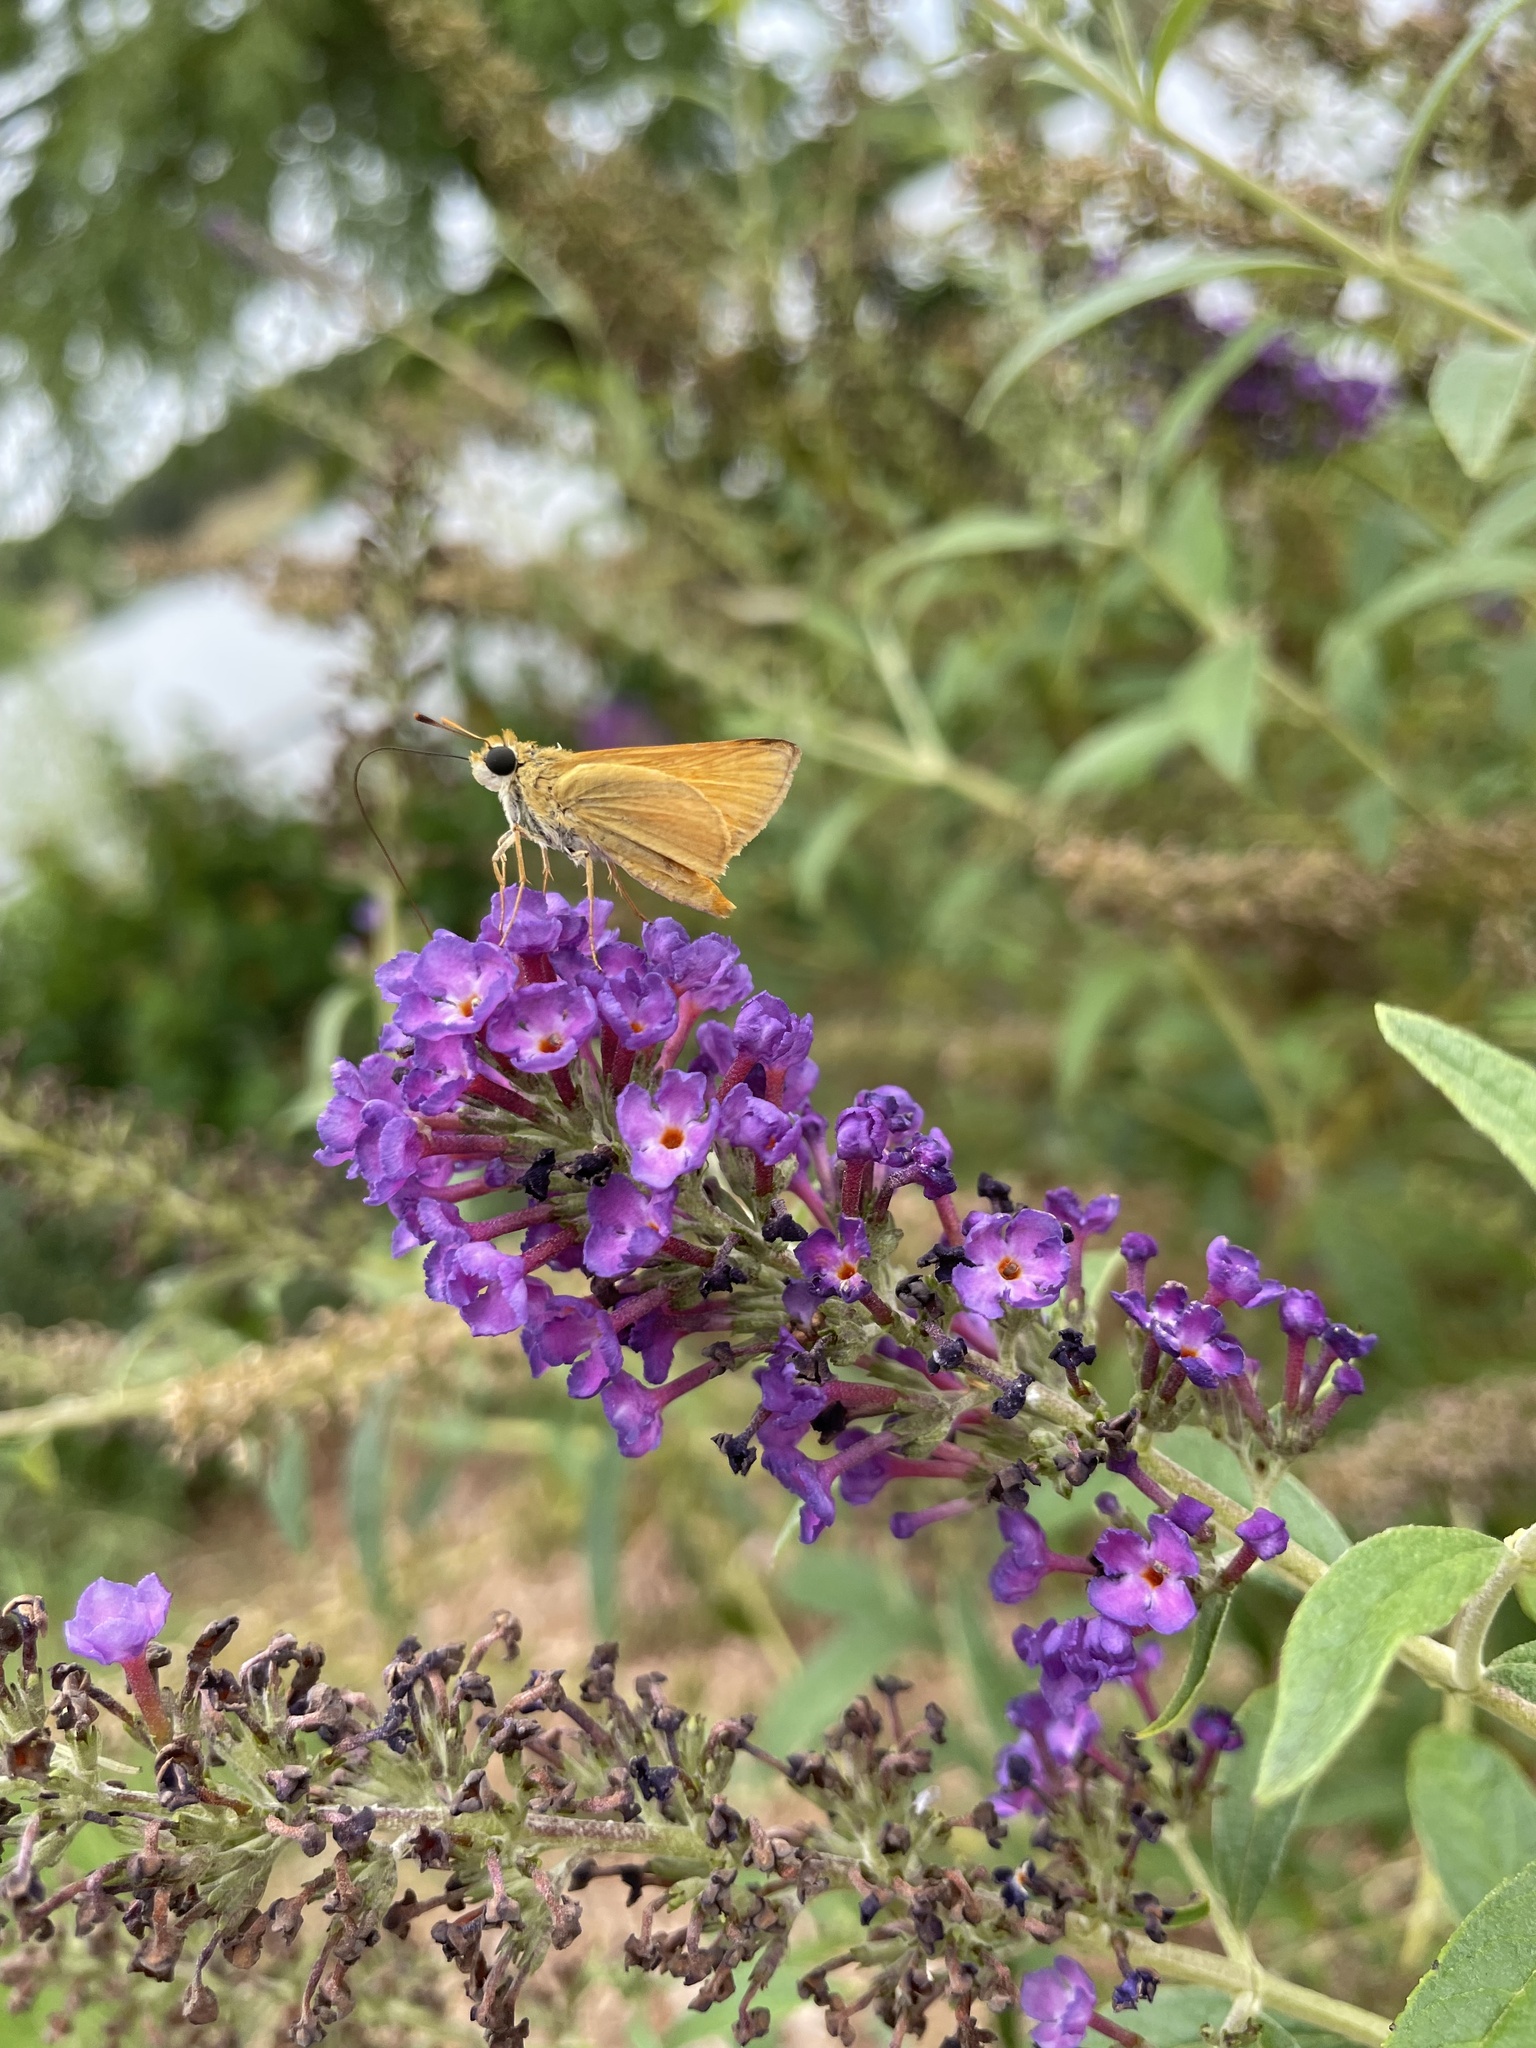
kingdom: Animalia
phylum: Arthropoda
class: Insecta
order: Lepidoptera
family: Hesperiidae
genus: Atrytone
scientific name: Atrytone delaware
